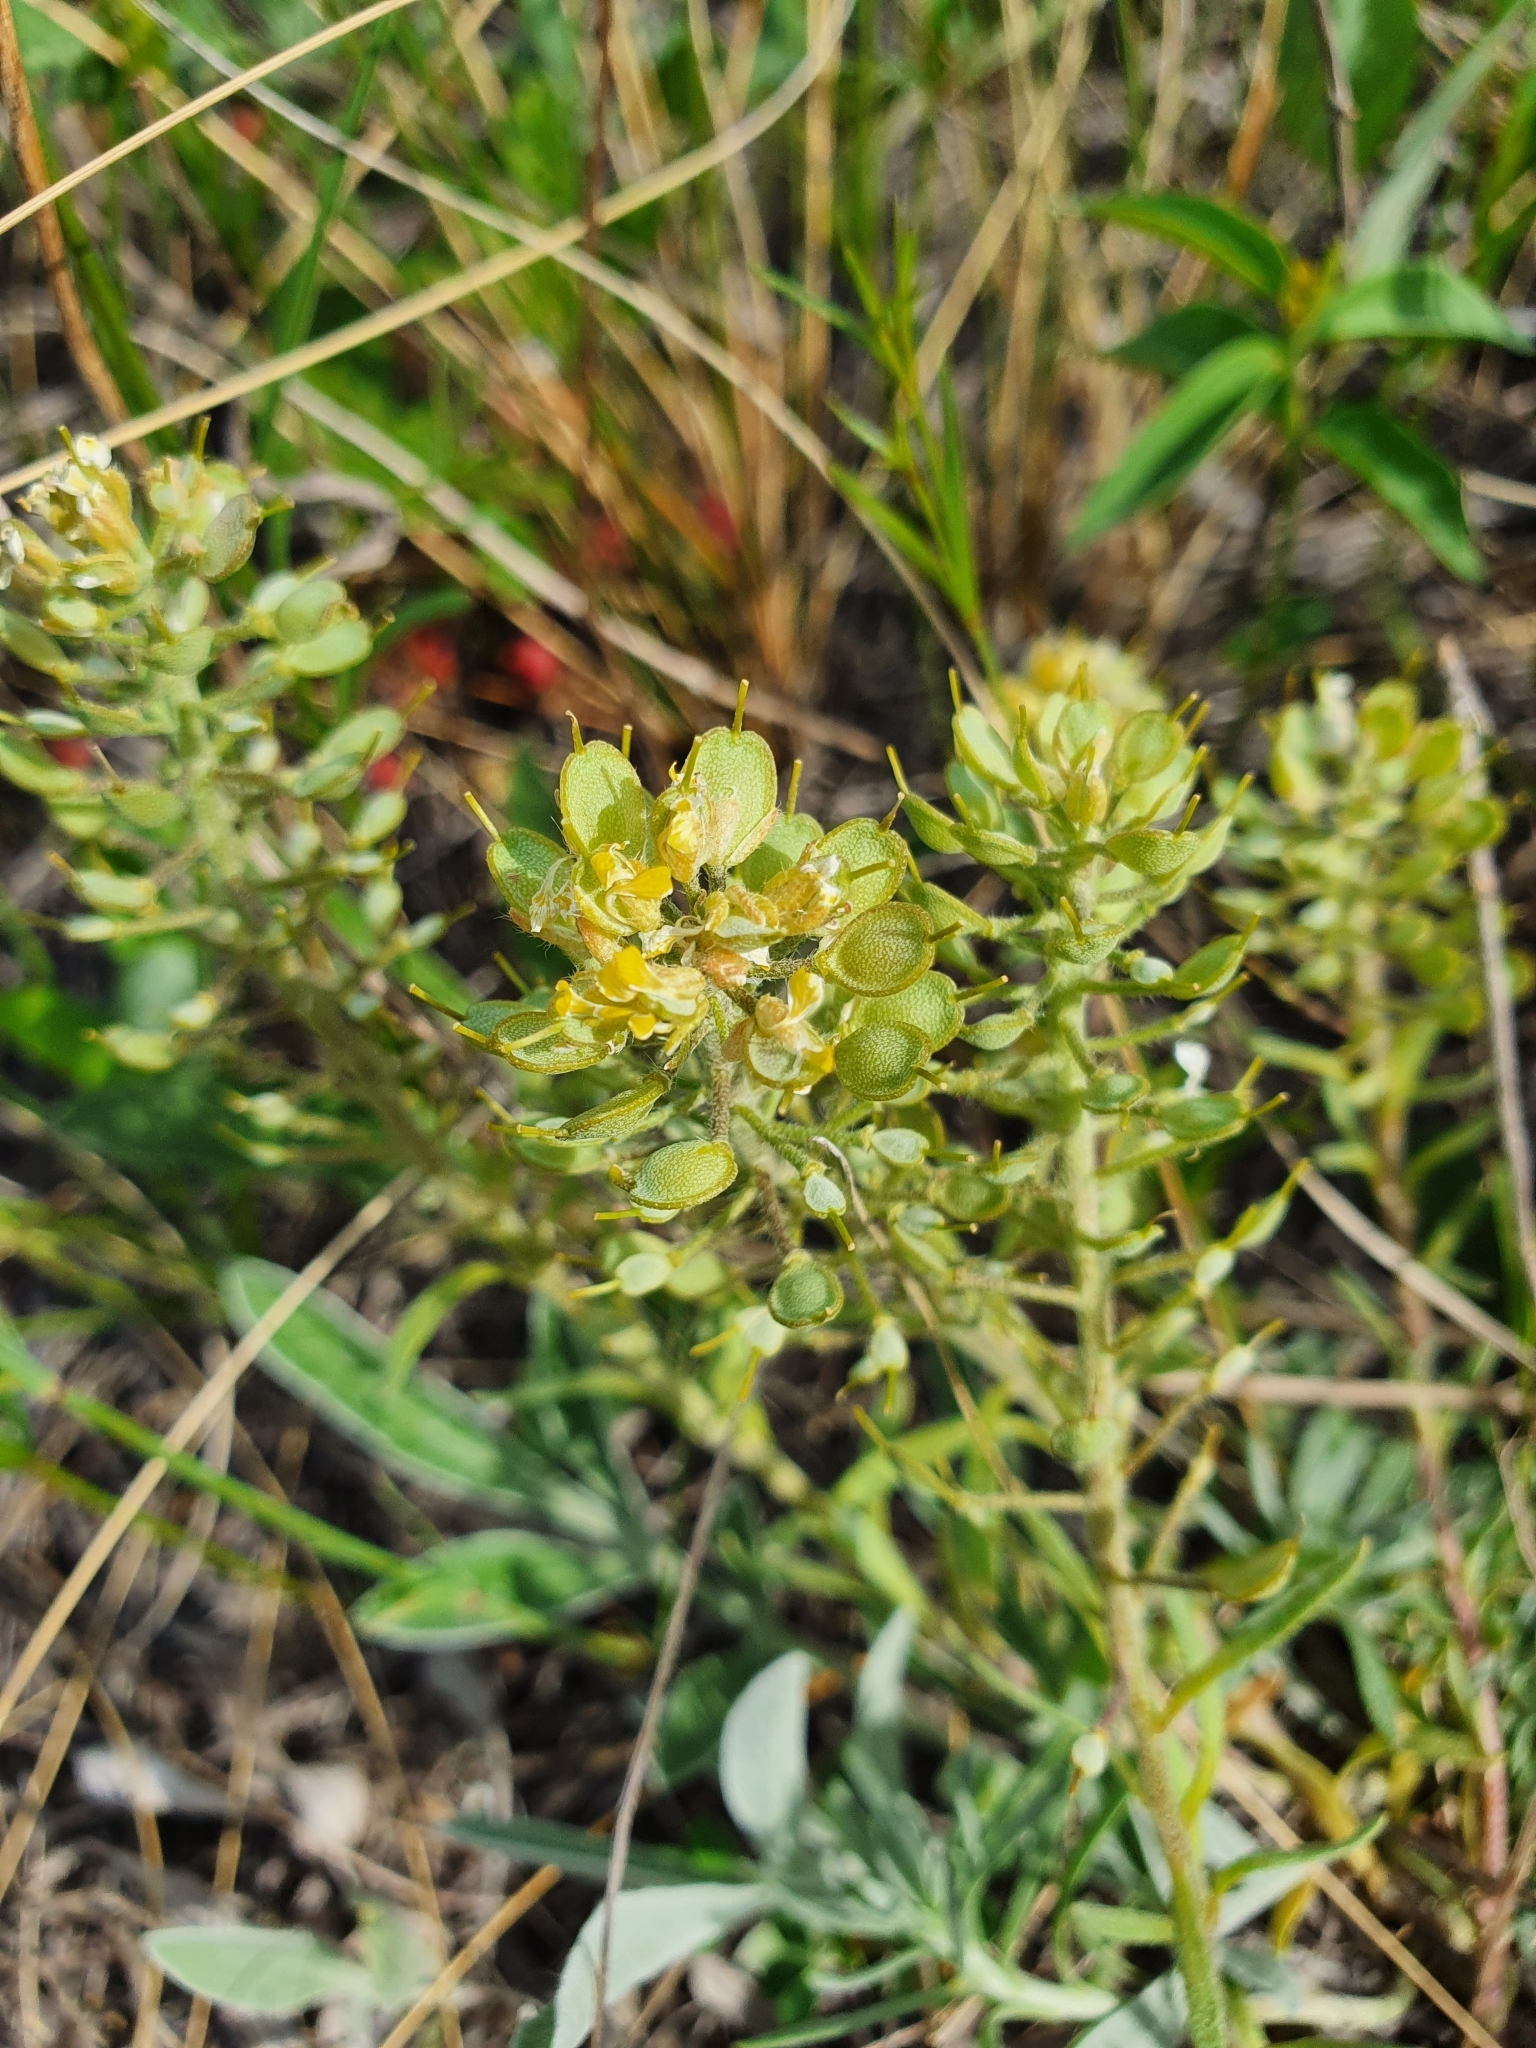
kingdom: Plantae
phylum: Tracheophyta
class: Magnoliopsida
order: Brassicales
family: Brassicaceae
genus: Alyssum
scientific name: Alyssum lenense
